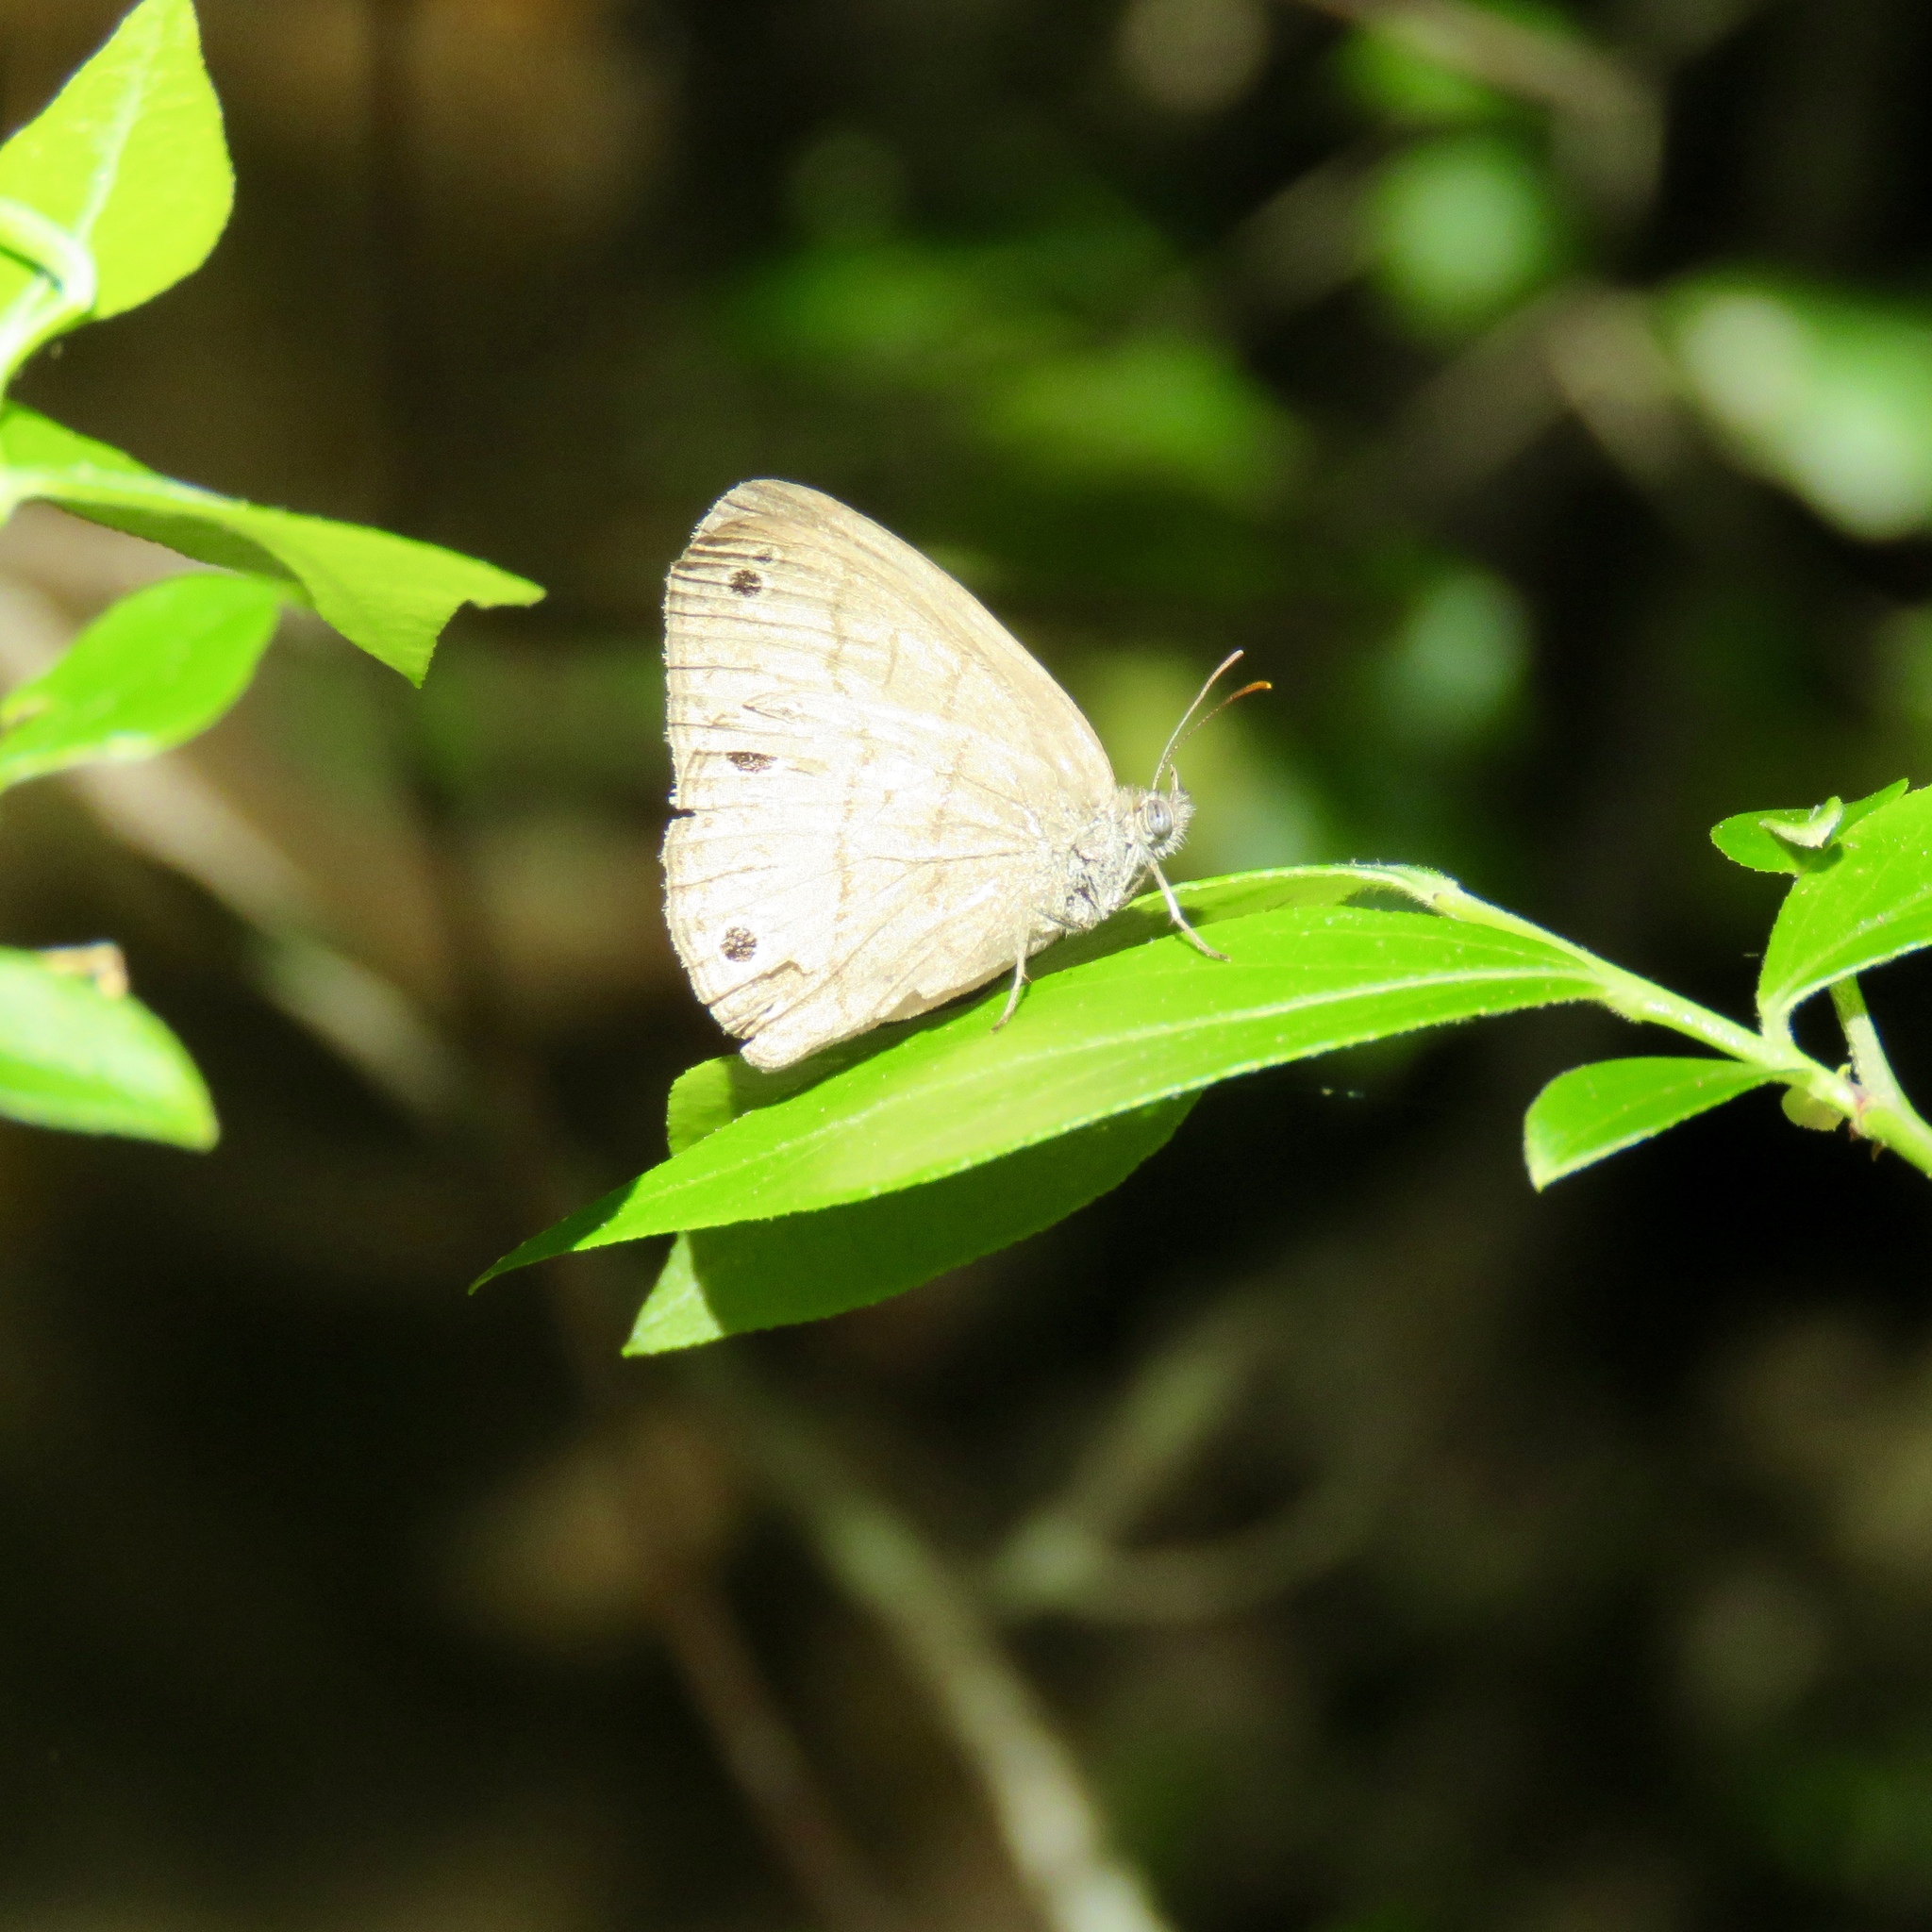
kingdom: Animalia
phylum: Arthropoda
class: Insecta
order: Lepidoptera
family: Nymphalidae
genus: Hermeuptychia
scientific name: Hermeuptychia hermes
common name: Hermes satyr
